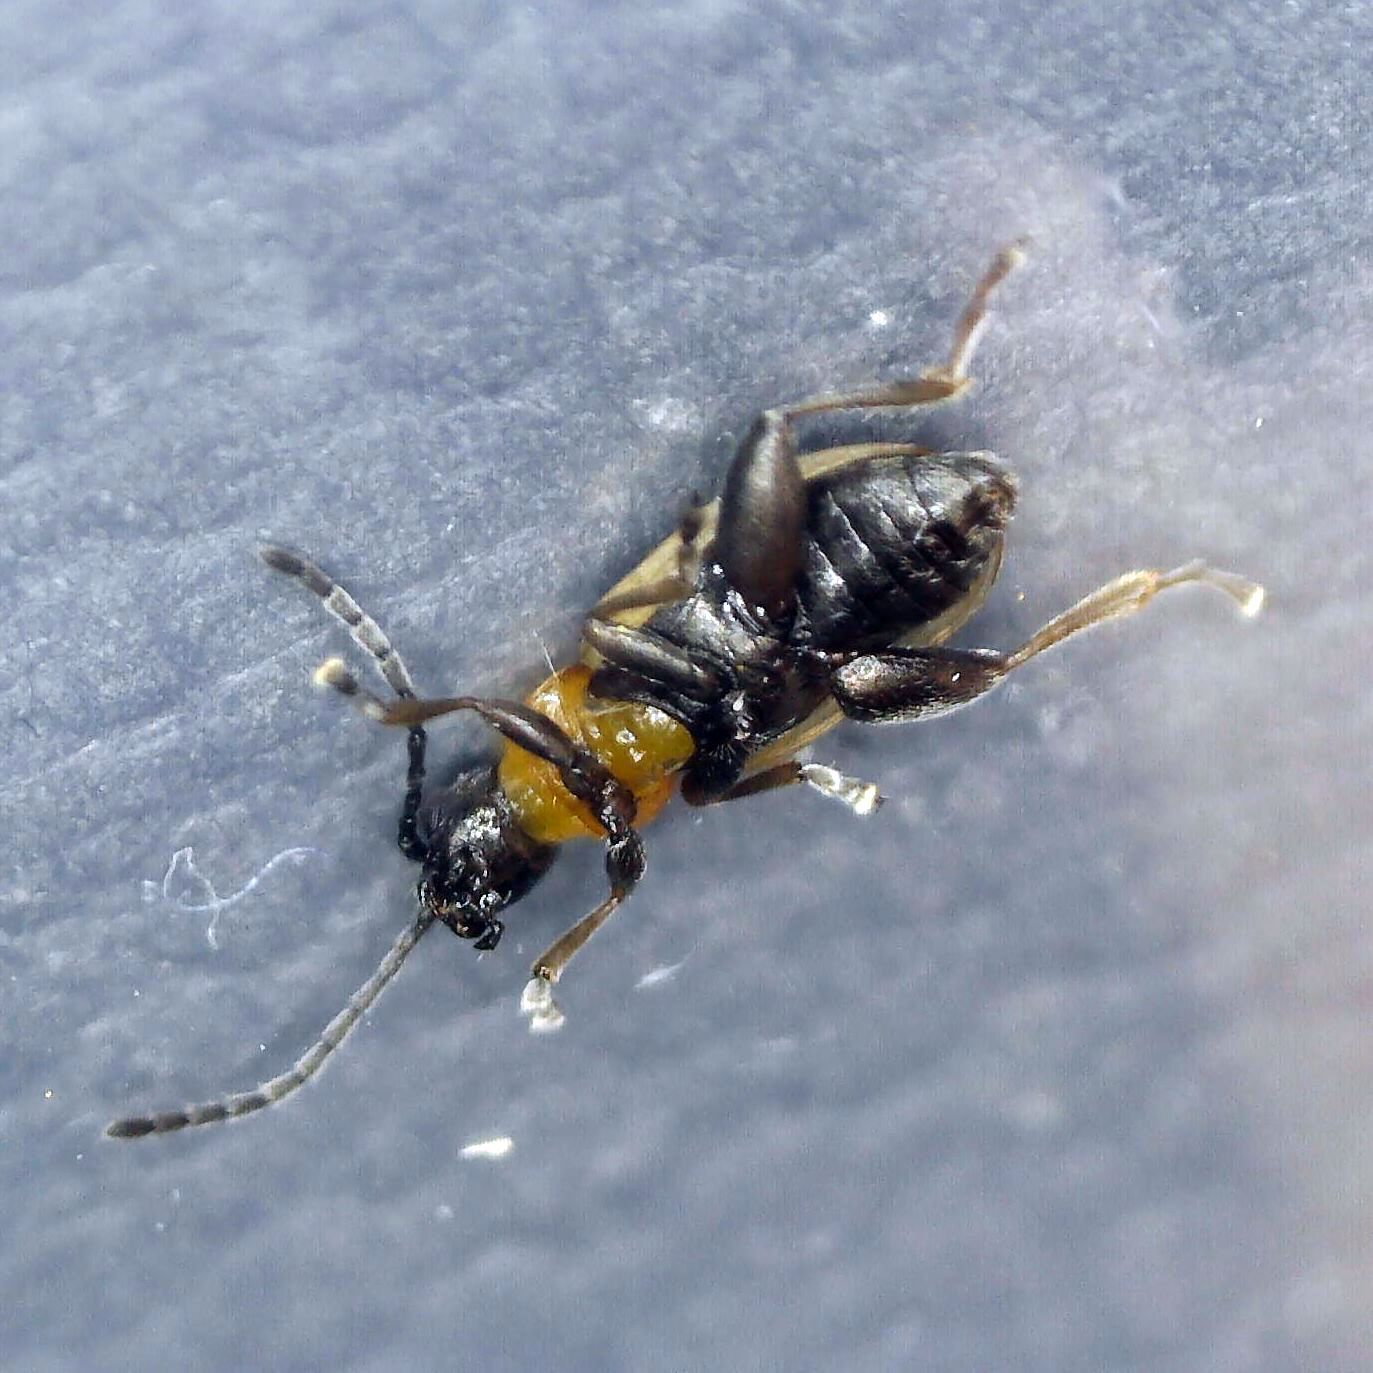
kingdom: Animalia
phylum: Arthropoda
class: Insecta
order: Coleoptera
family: Chrysomelidae
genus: Longitarsus
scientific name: Longitarsus dorsalis
